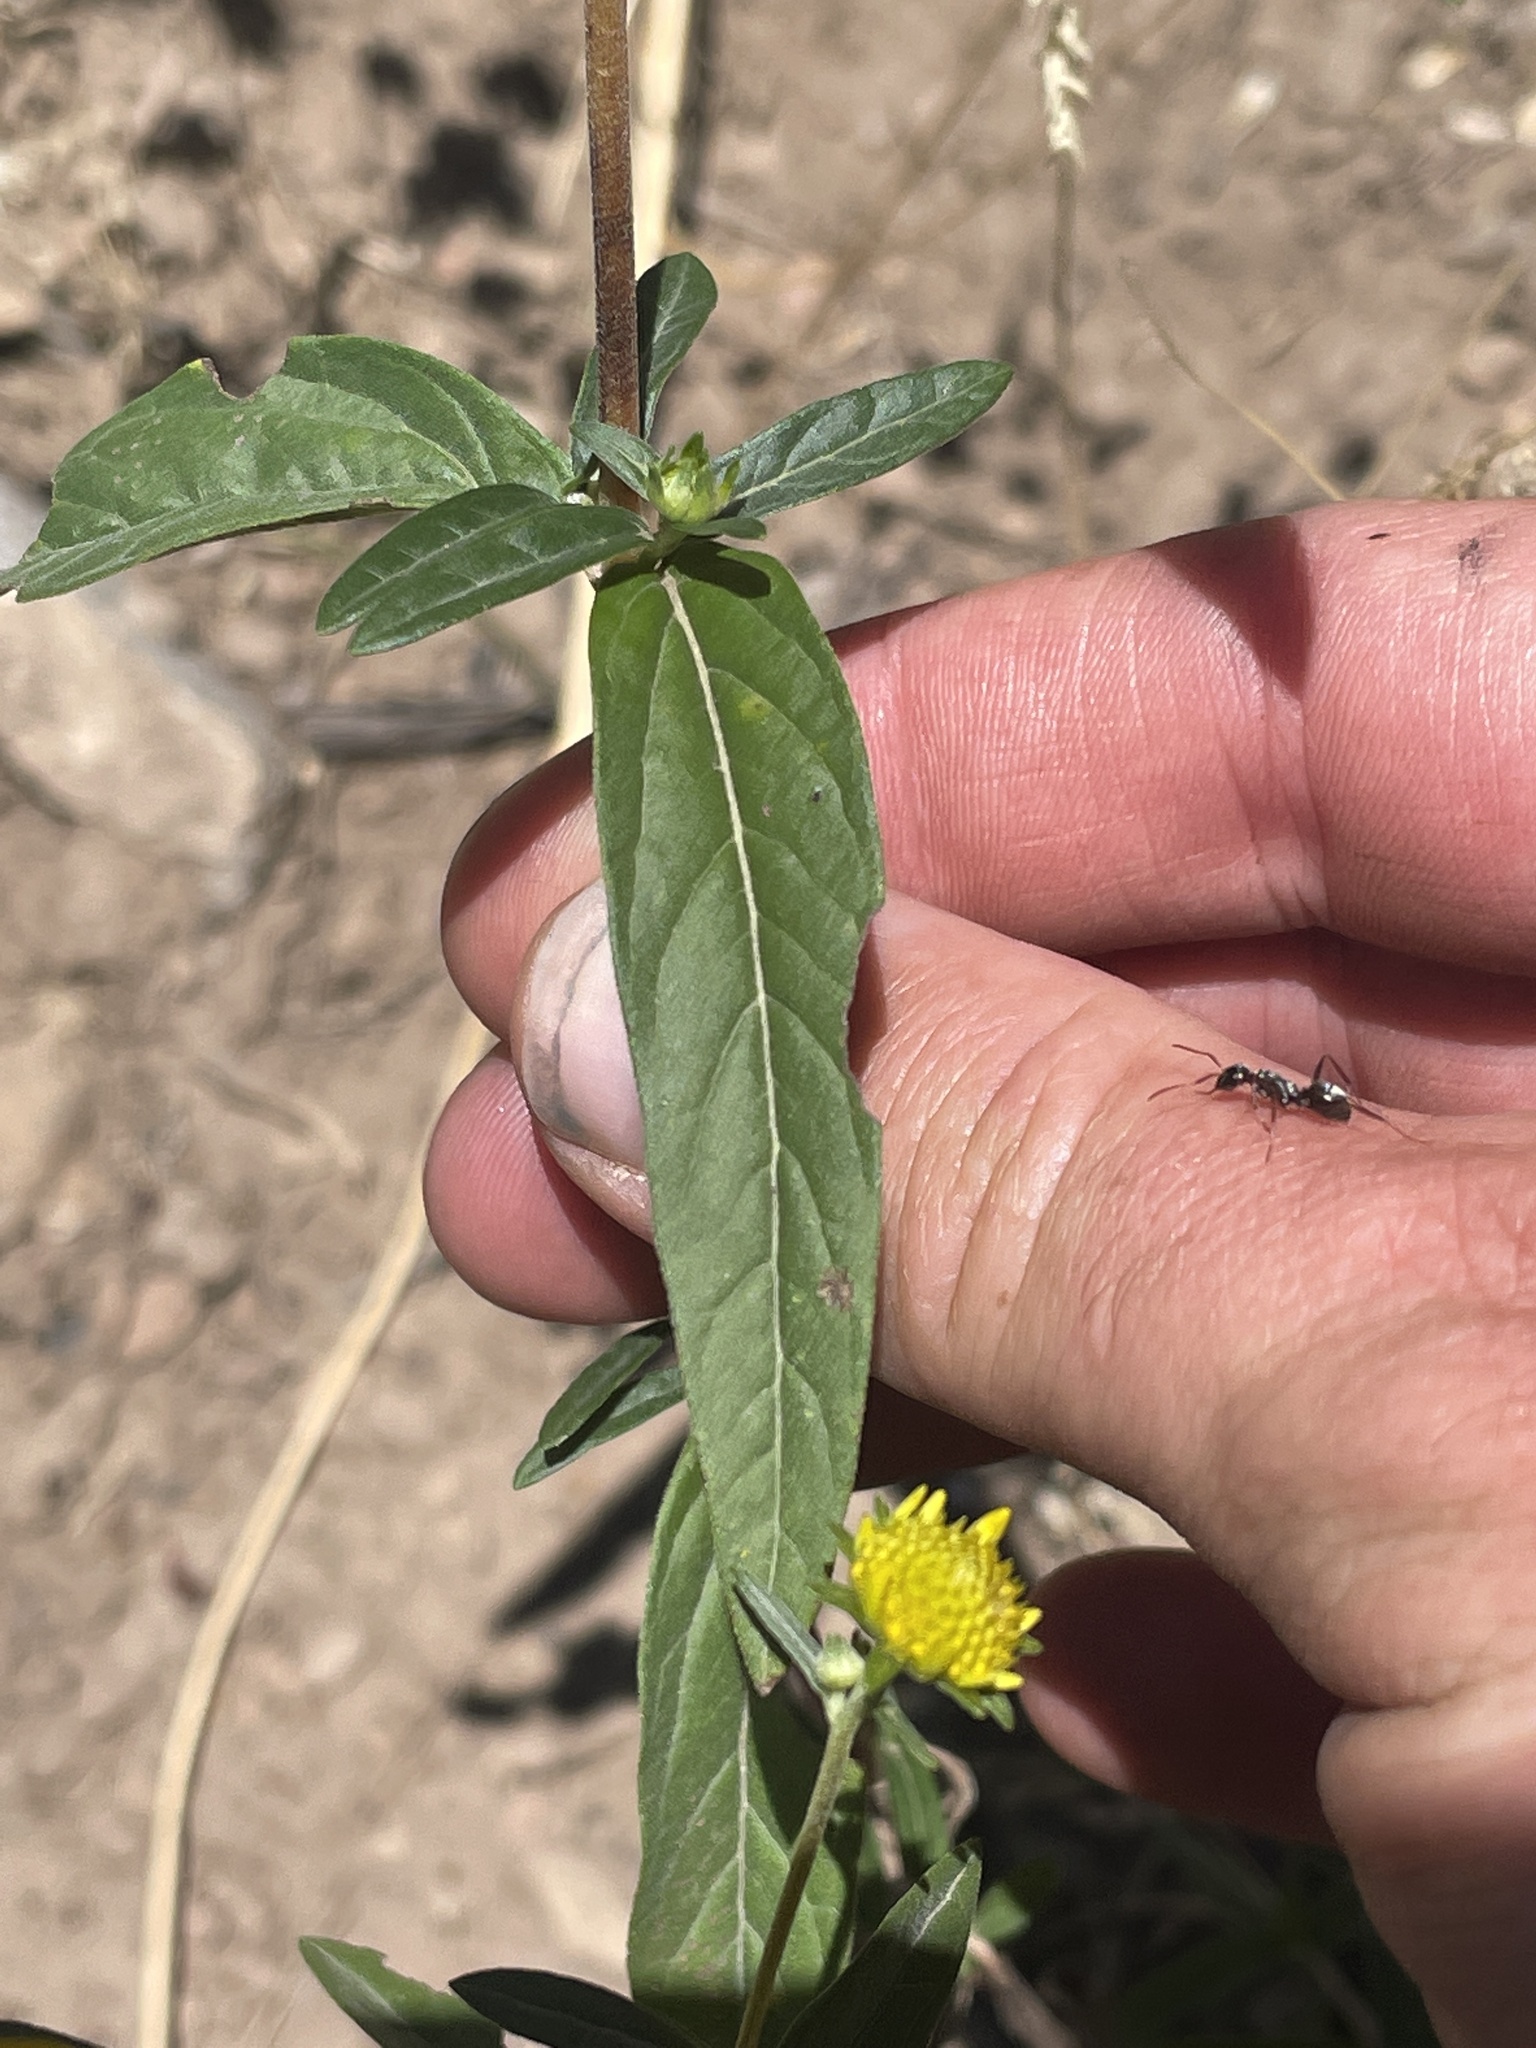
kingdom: Plantae
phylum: Tracheophyta
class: Magnoliopsida
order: Asterales
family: Asteraceae
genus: Heliomeris
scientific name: Heliomeris multiflora
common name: Showy goldeneye
